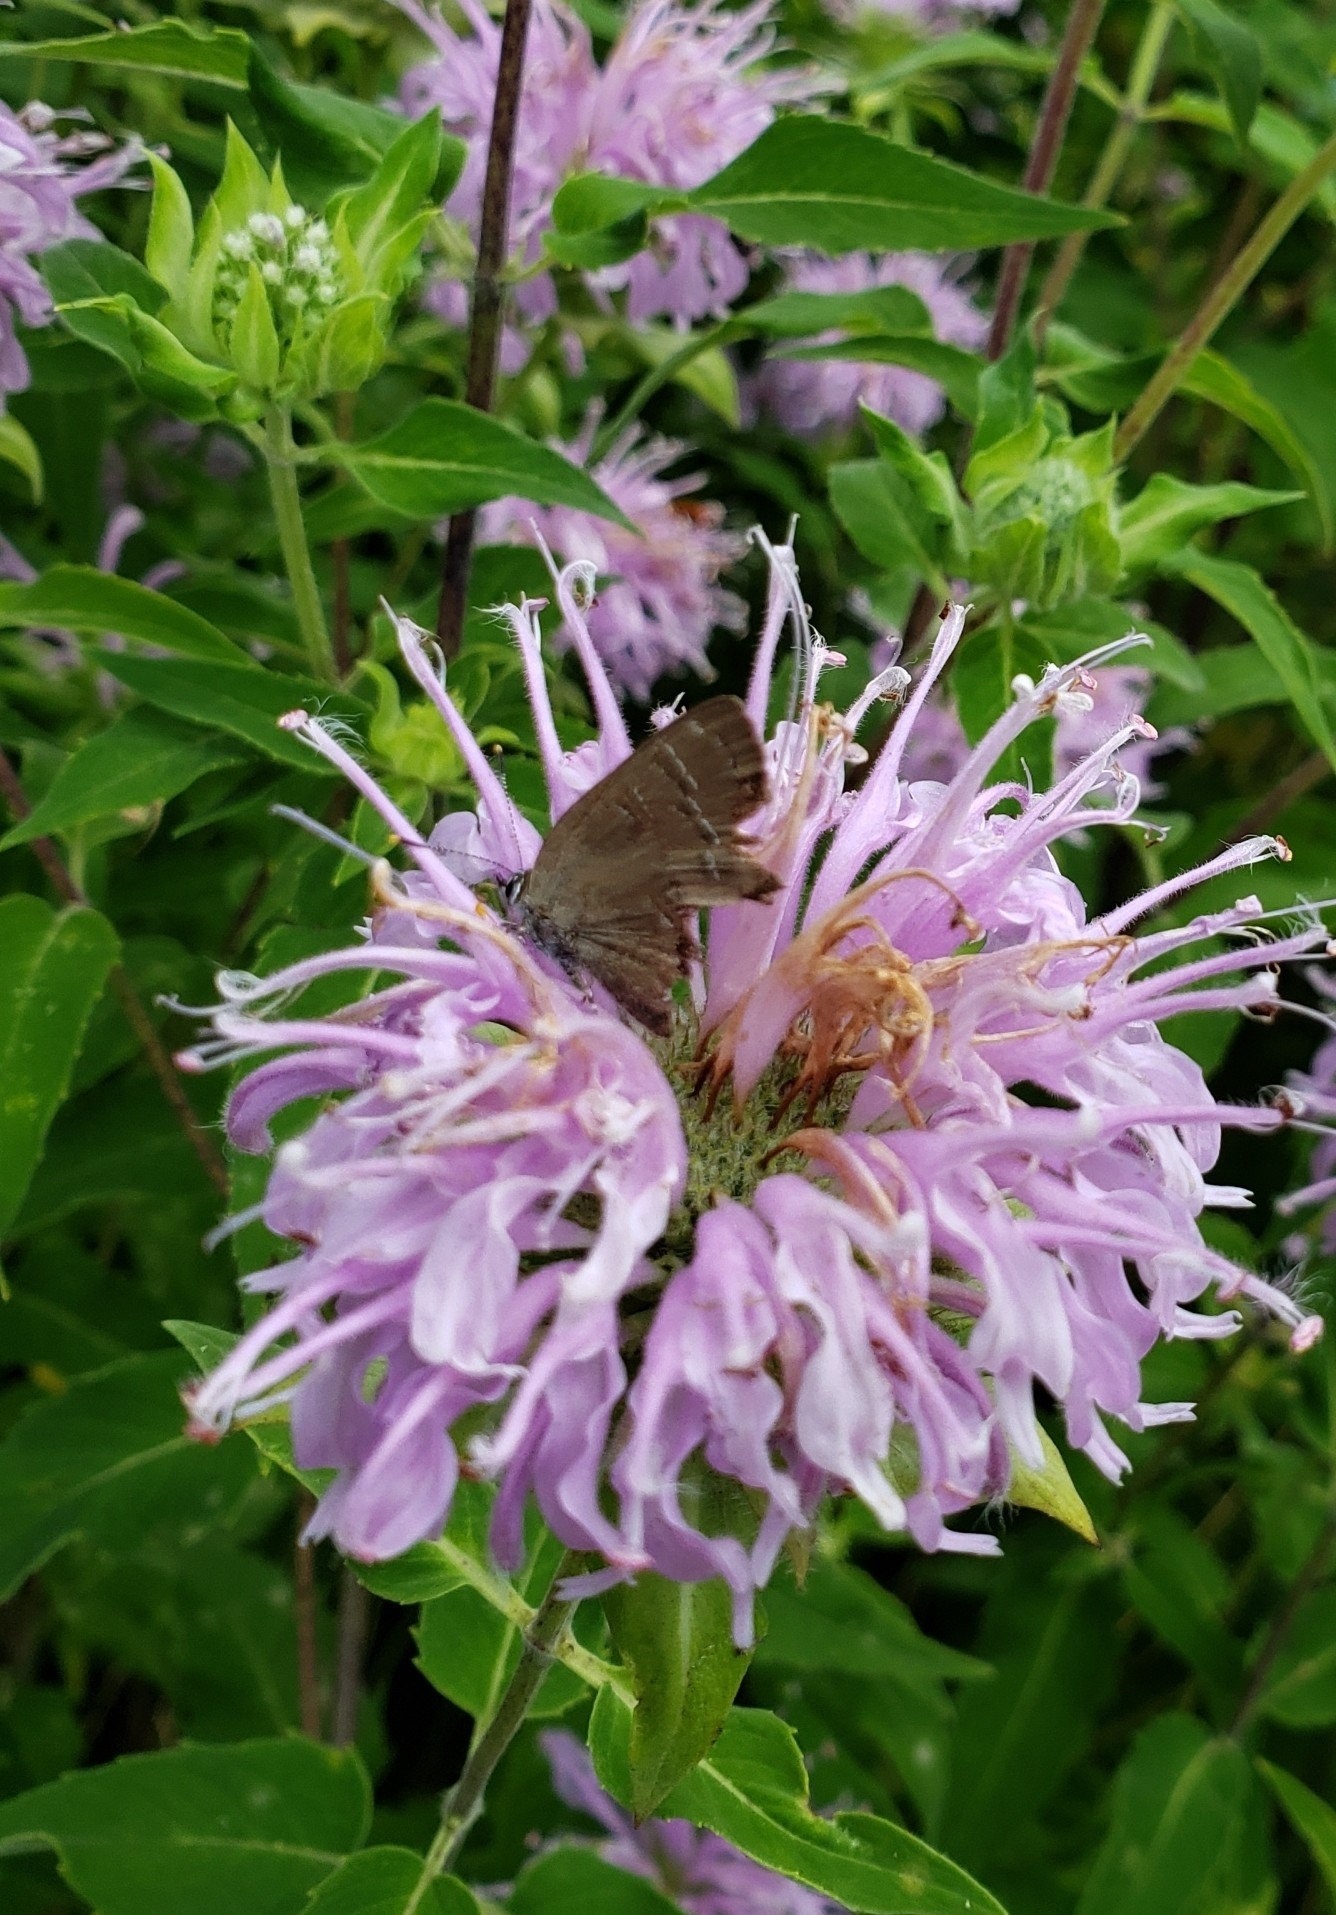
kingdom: Animalia
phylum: Arthropoda
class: Insecta
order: Lepidoptera
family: Lycaenidae
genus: Satyrium
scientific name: Satyrium calanus
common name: Banded hairstreak
